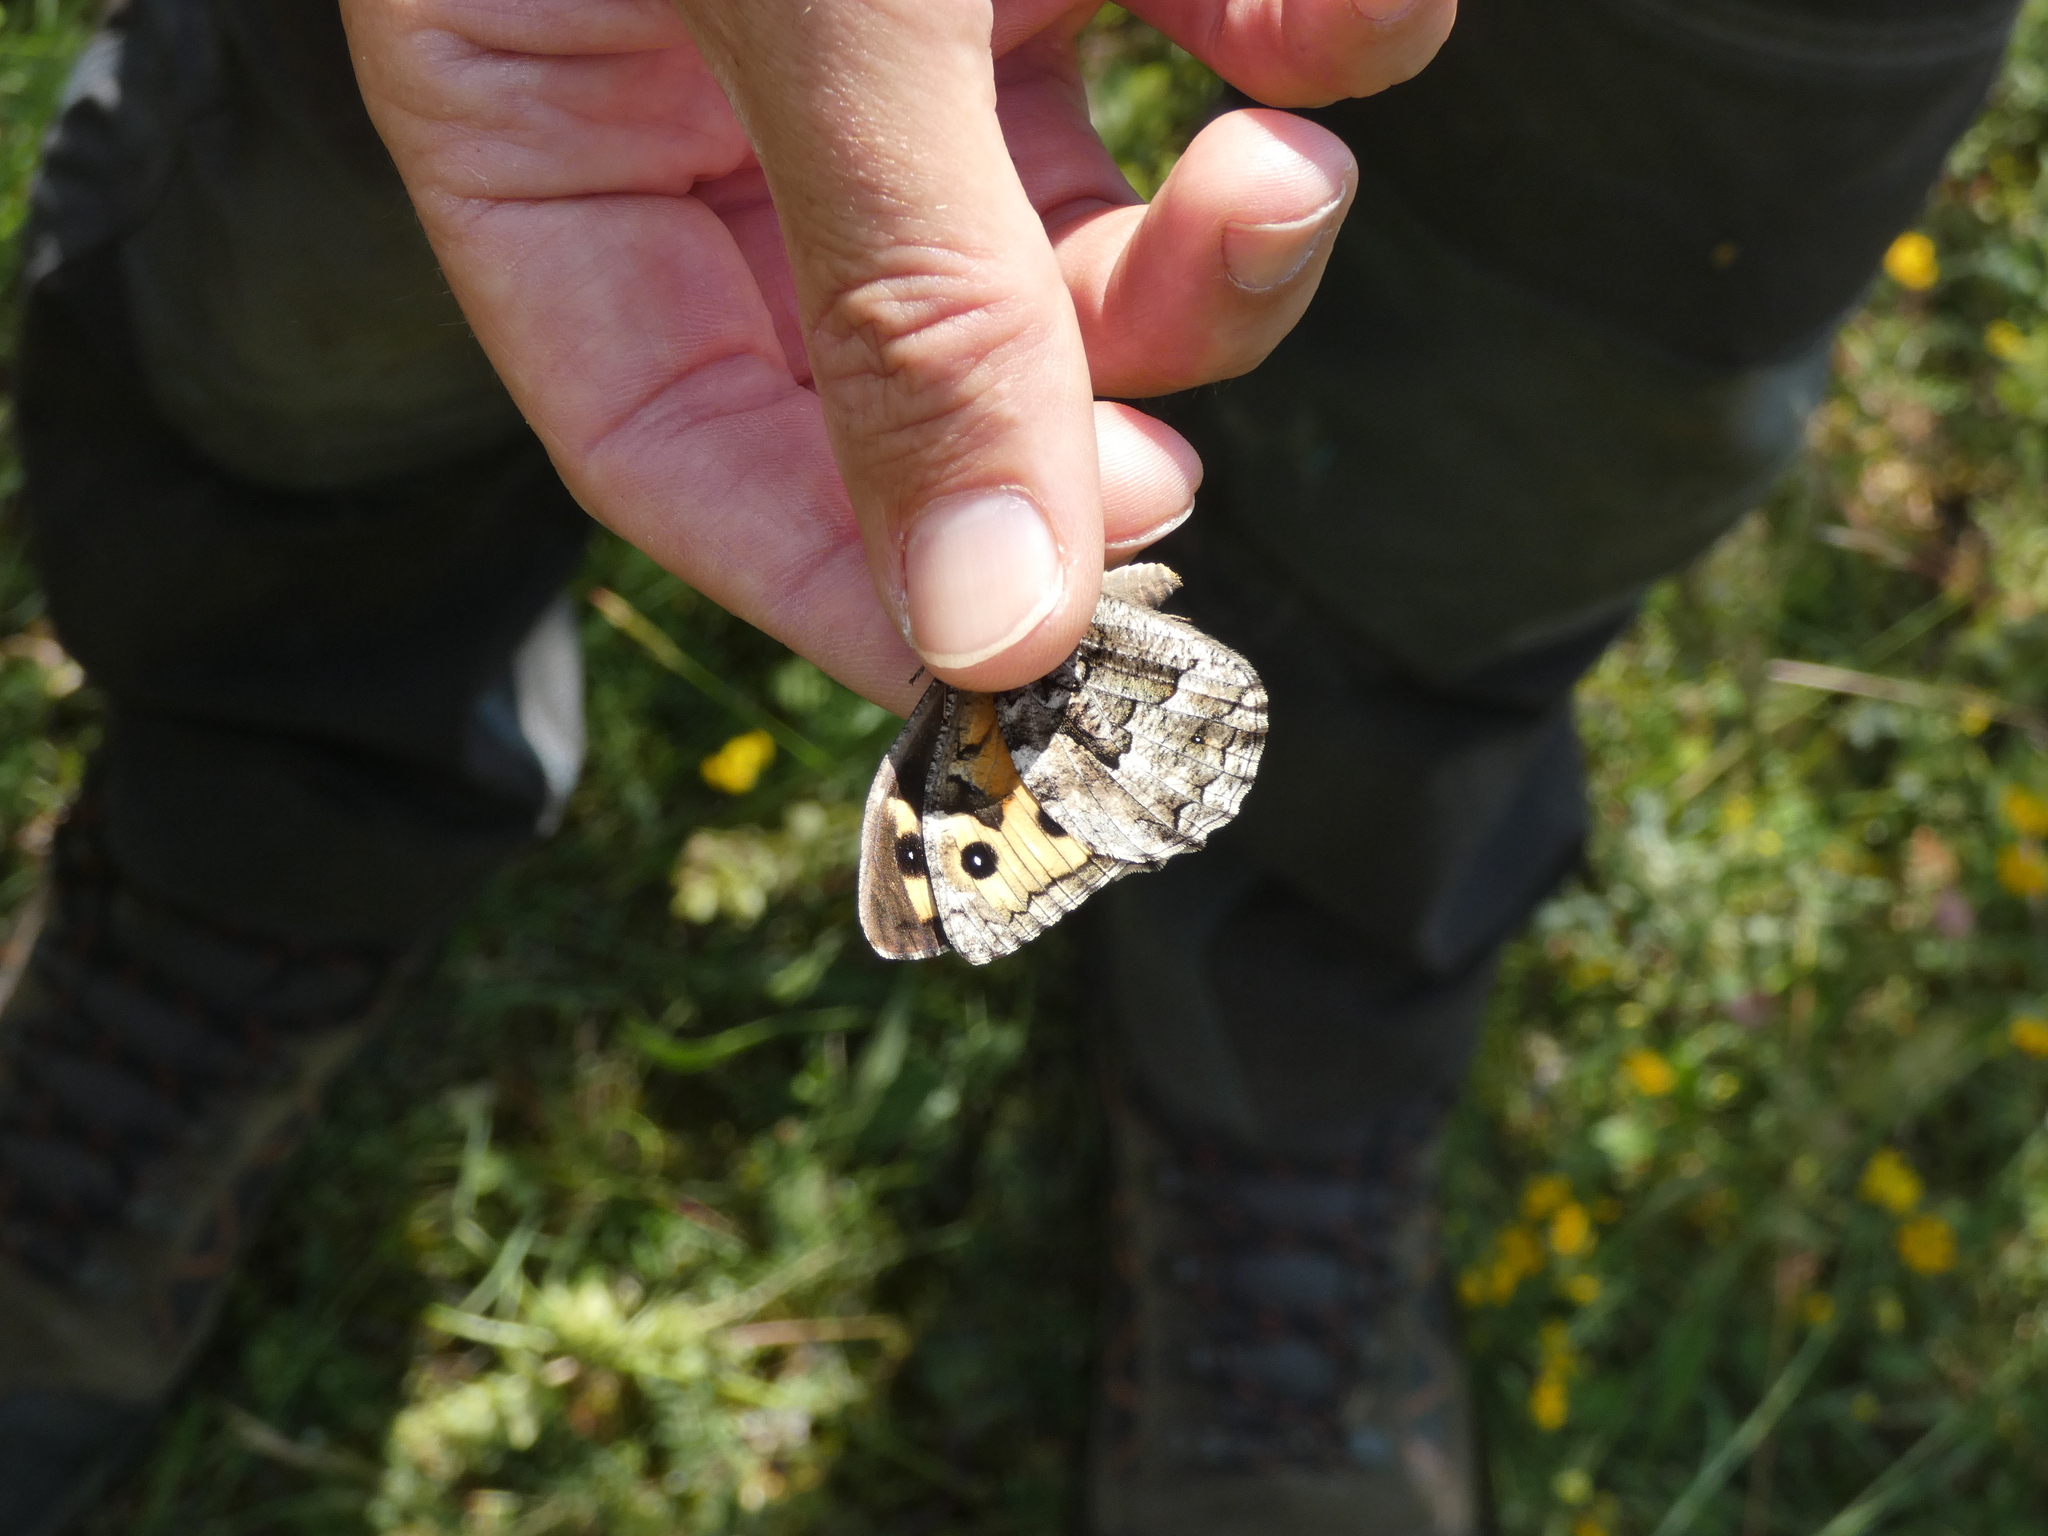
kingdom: Animalia
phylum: Arthropoda
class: Insecta
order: Lepidoptera
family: Nymphalidae
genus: Hipparchia
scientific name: Hipparchia semele
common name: Grayling
